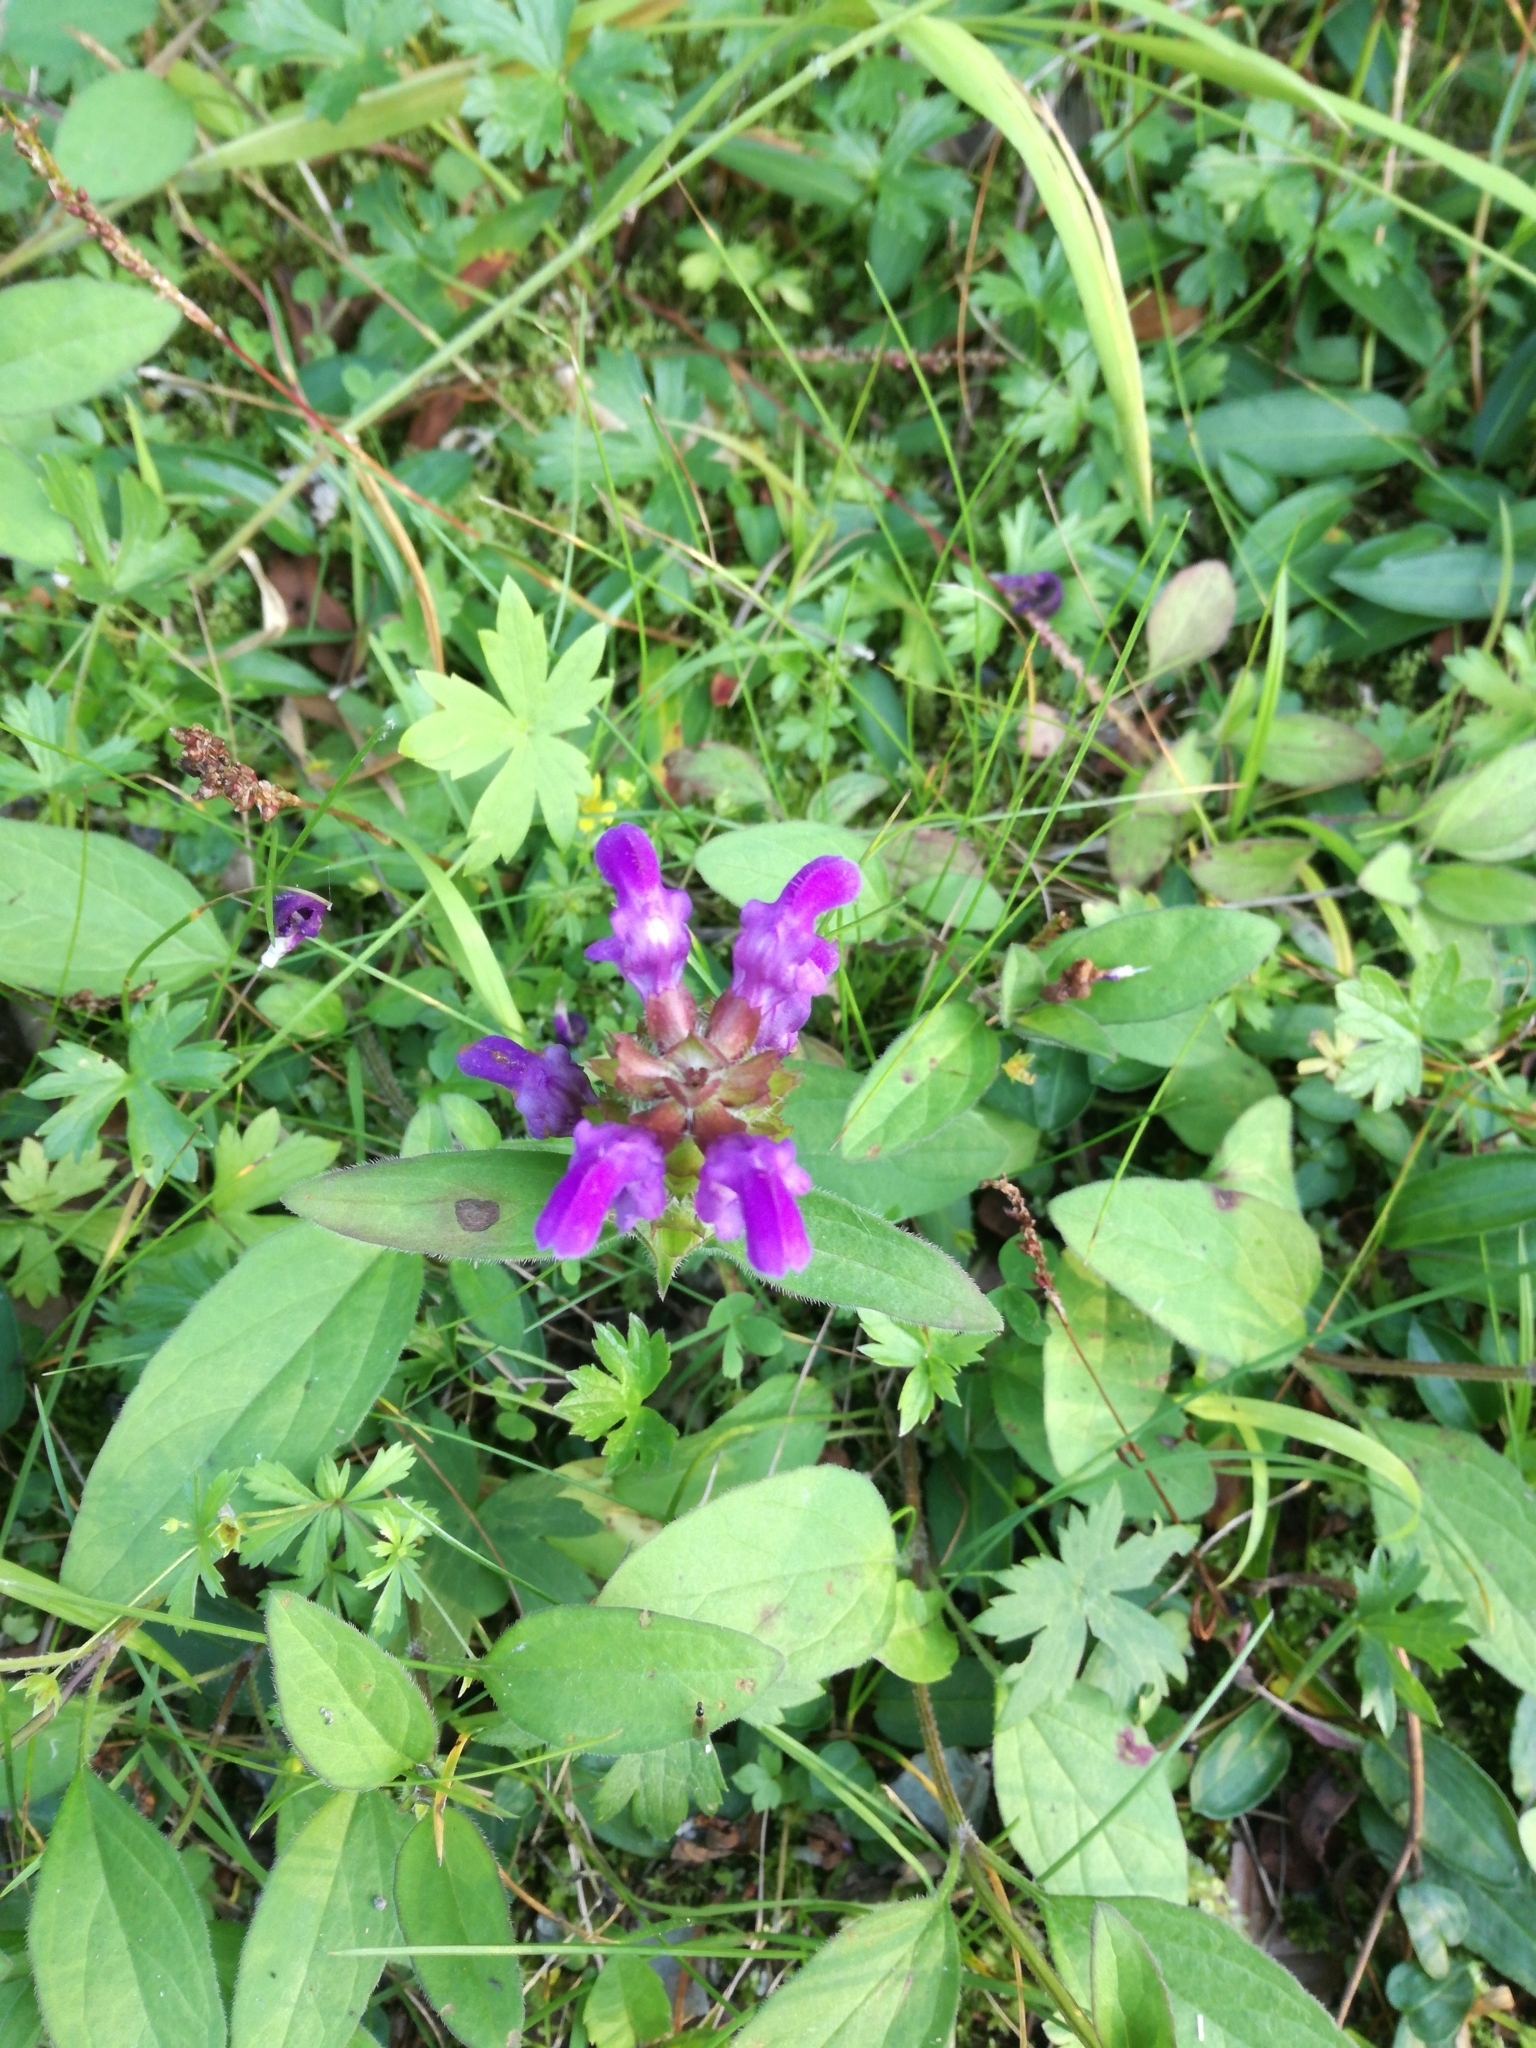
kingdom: Plantae
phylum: Tracheophyta
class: Magnoliopsida
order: Lamiales
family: Lamiaceae
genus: Prunella
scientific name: Prunella grandiflora
